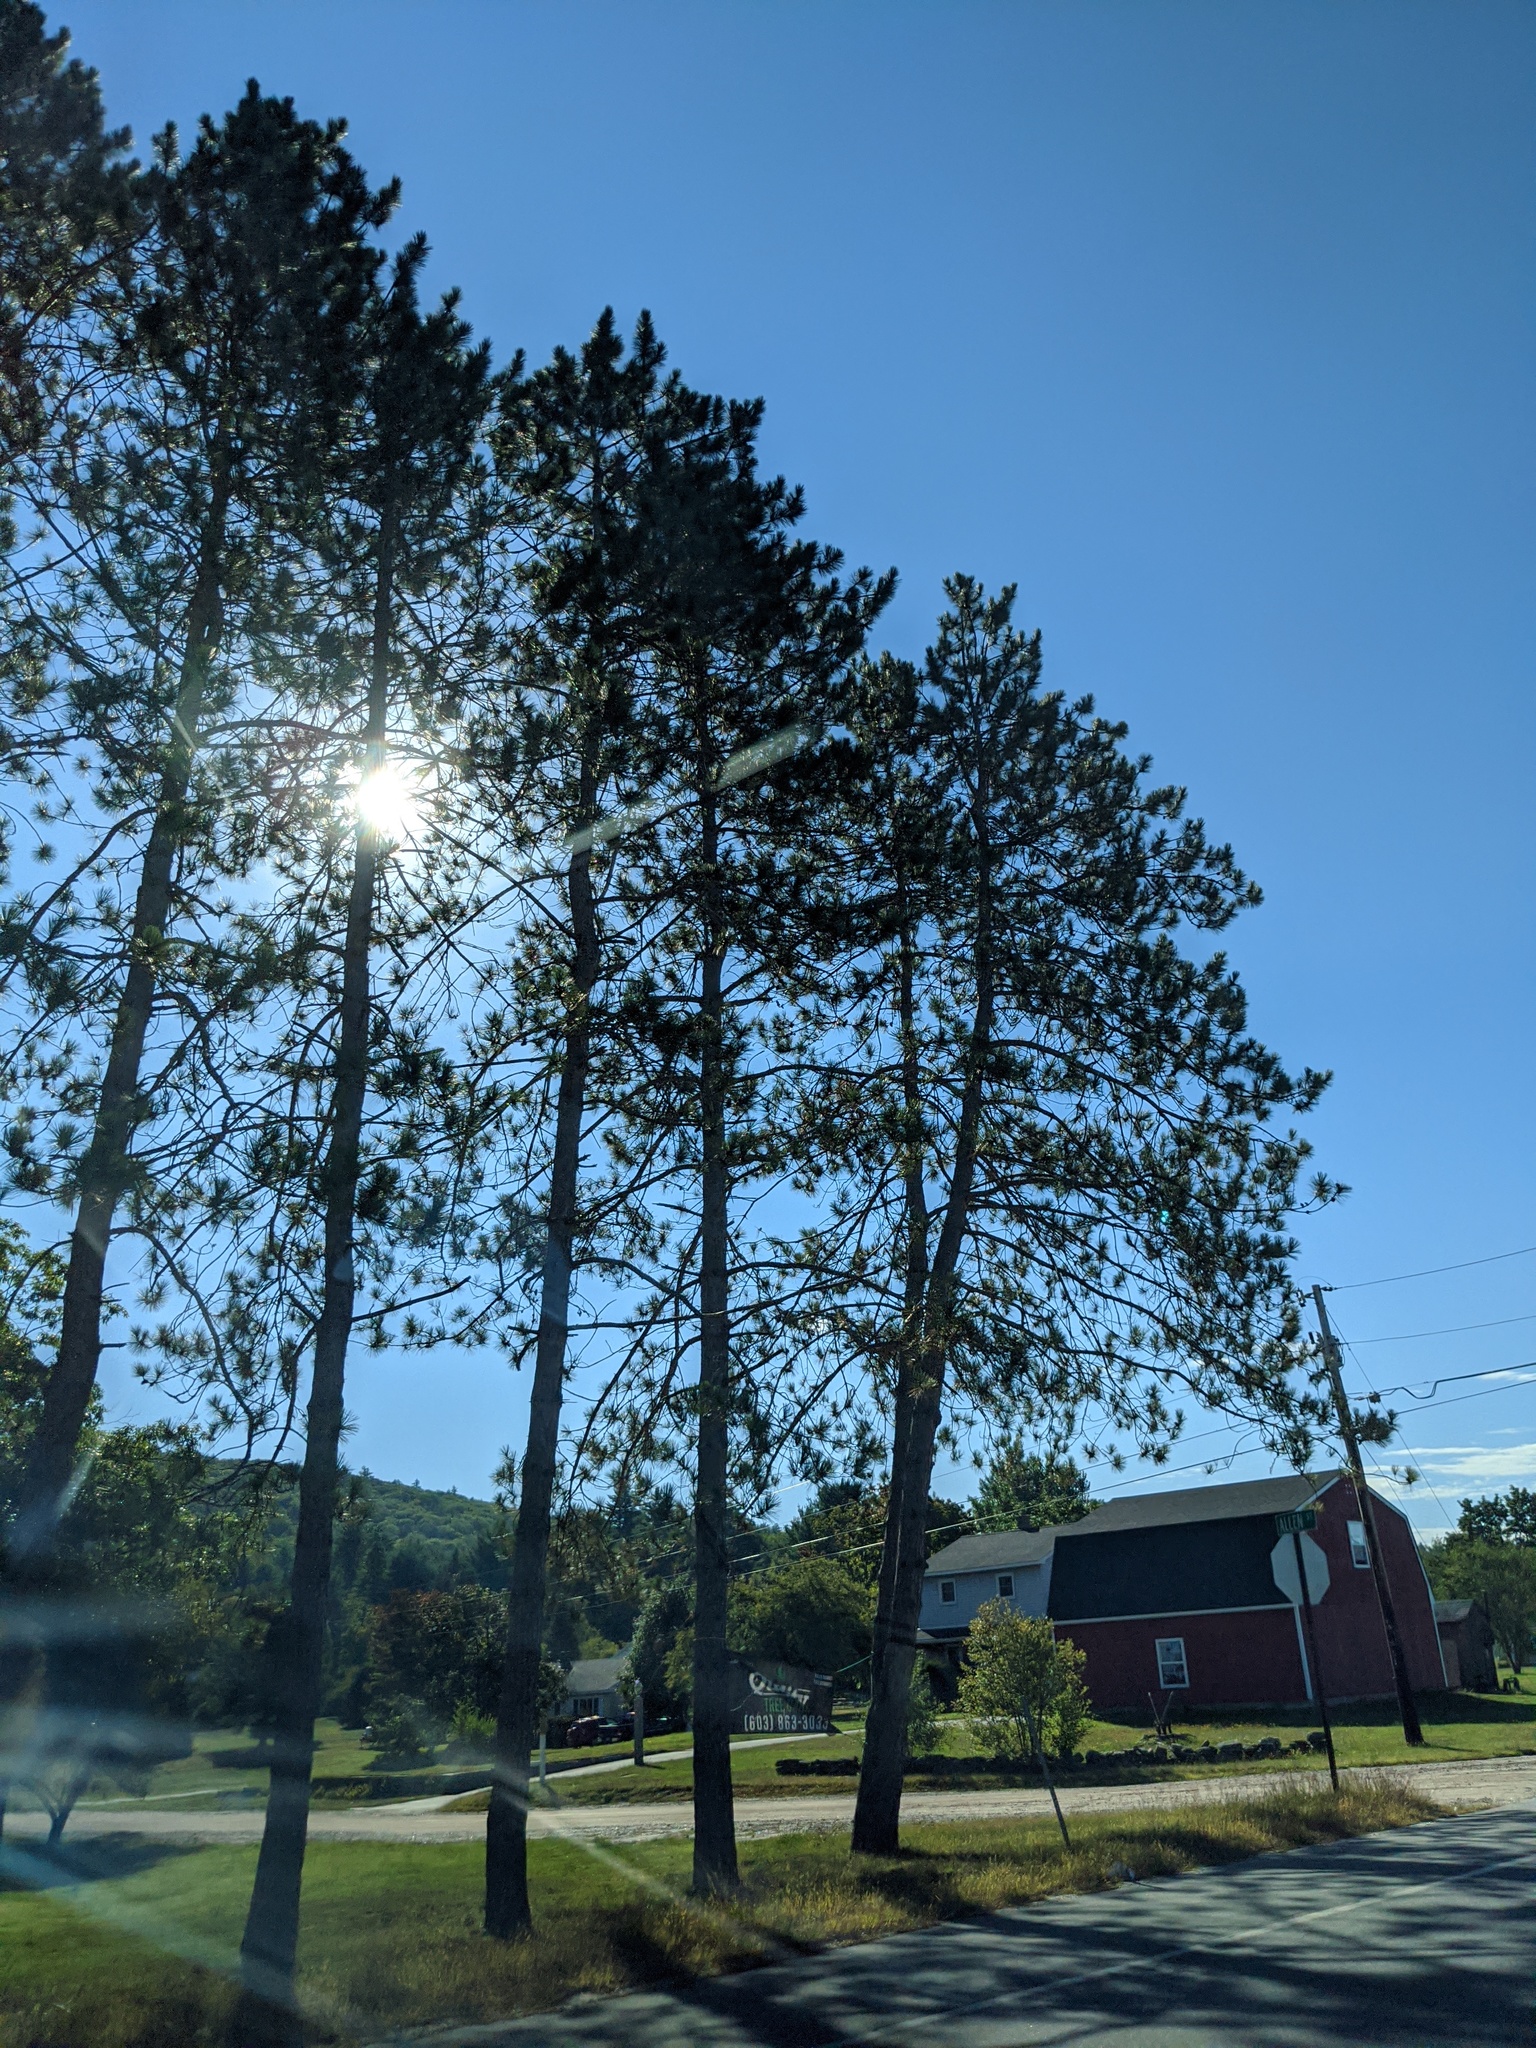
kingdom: Plantae
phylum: Tracheophyta
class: Pinopsida
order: Pinales
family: Pinaceae
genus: Pinus
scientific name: Pinus resinosa
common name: Norway pine
